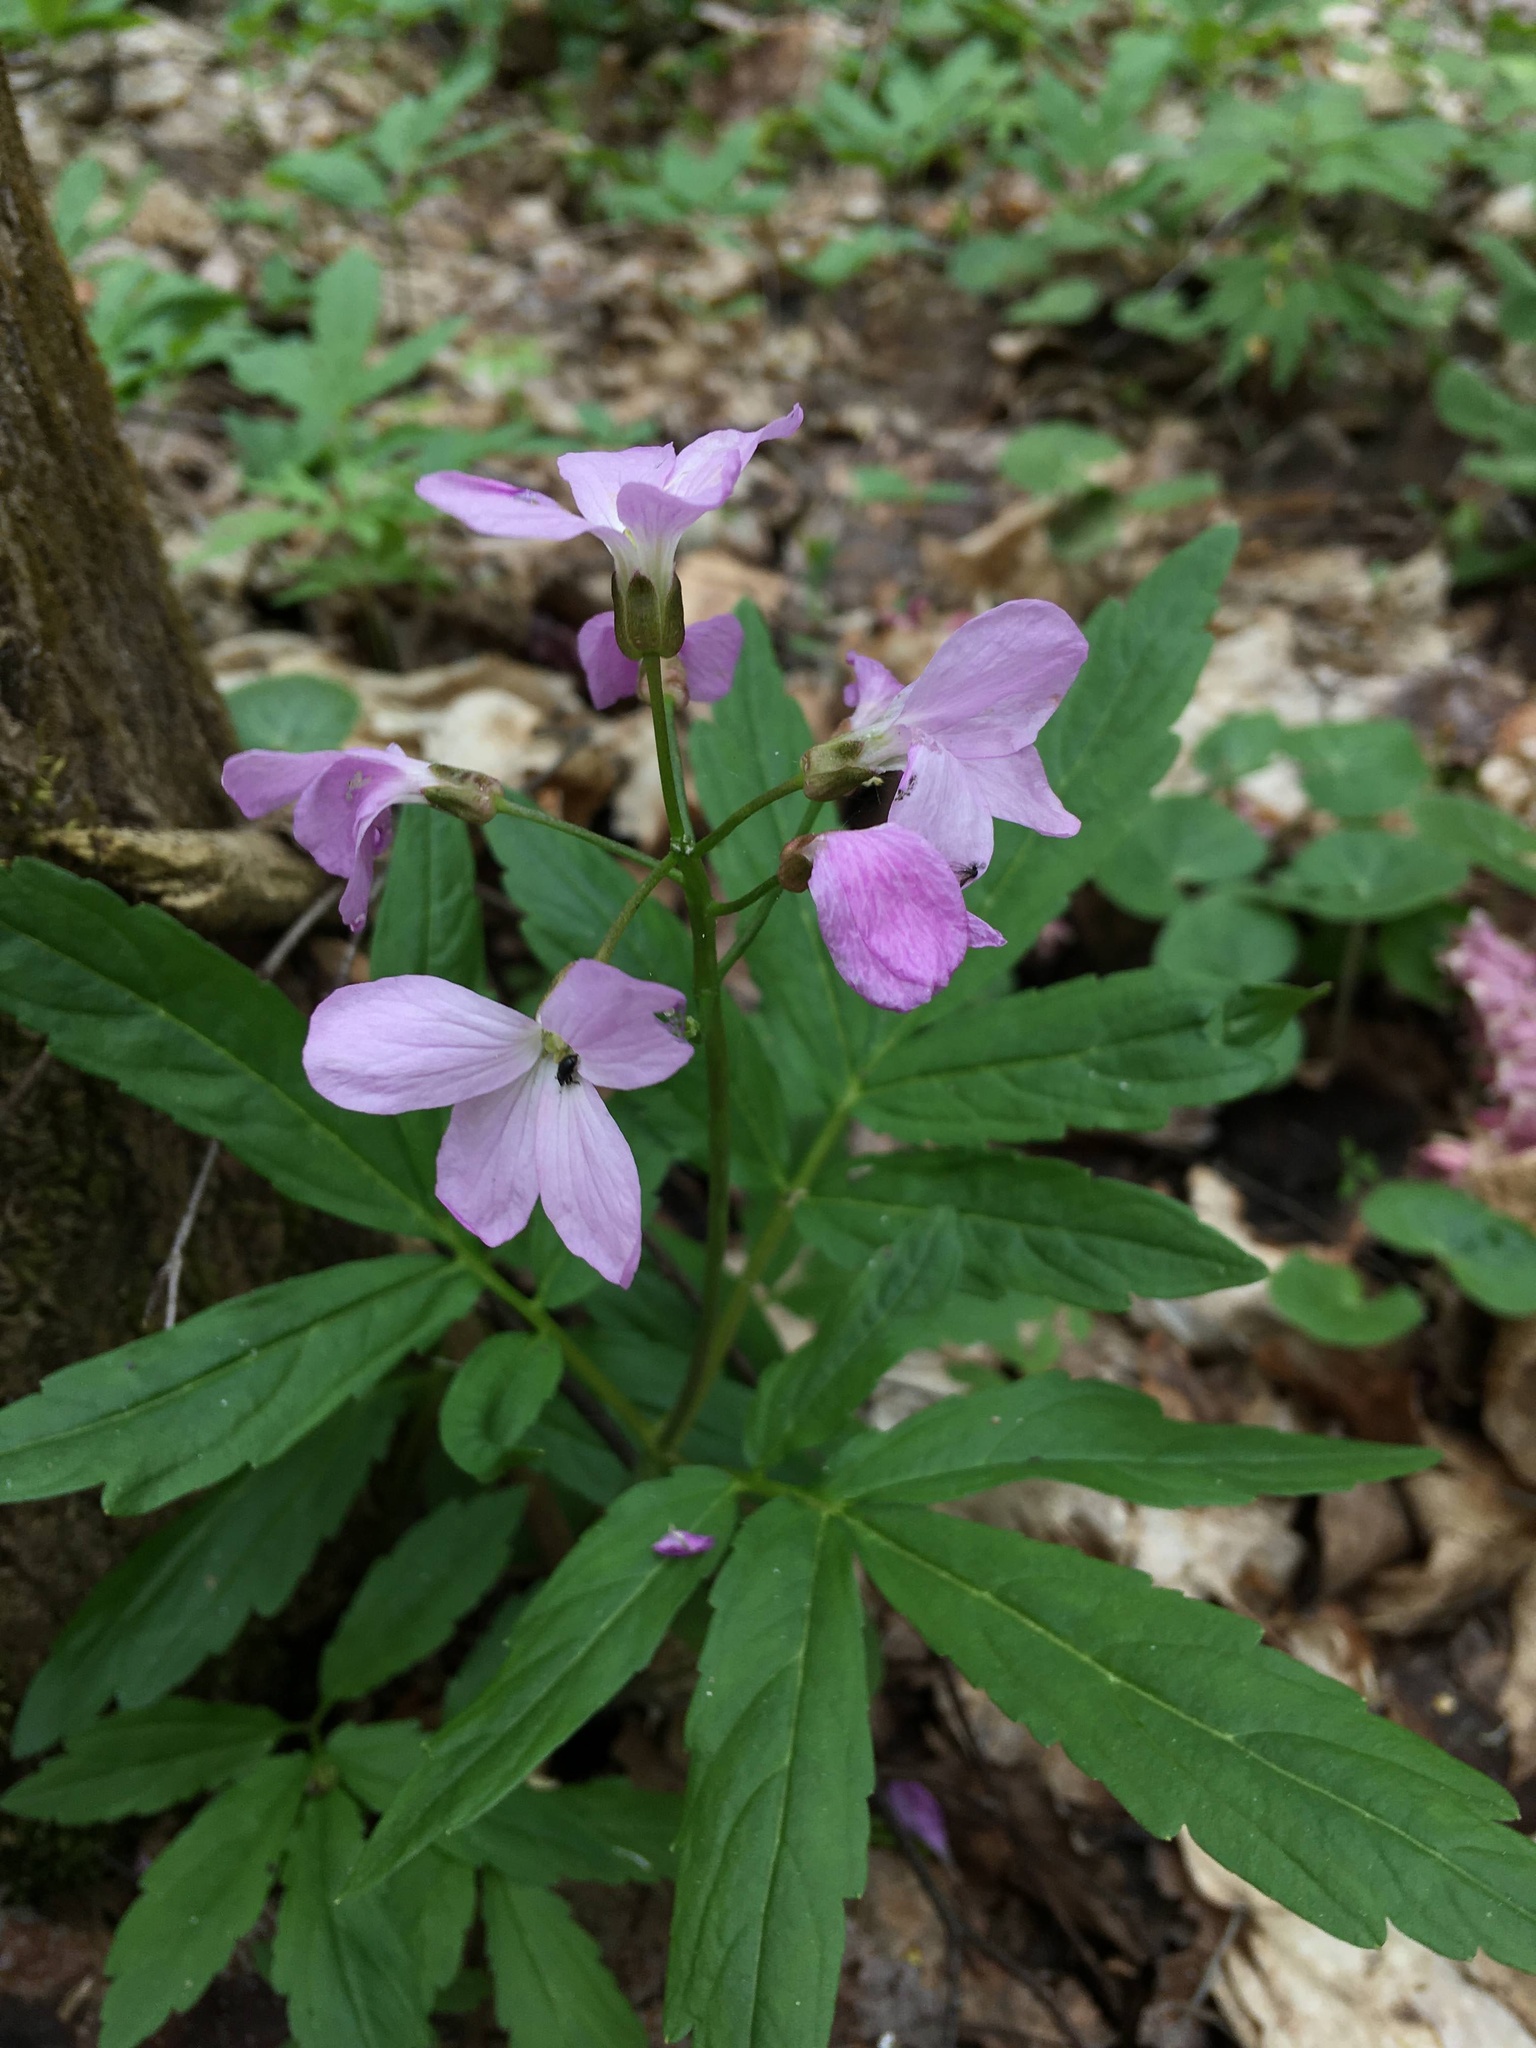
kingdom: Plantae
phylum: Tracheophyta
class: Magnoliopsida
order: Brassicales
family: Brassicaceae
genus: Cardamine
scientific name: Cardamine quinquefolia
